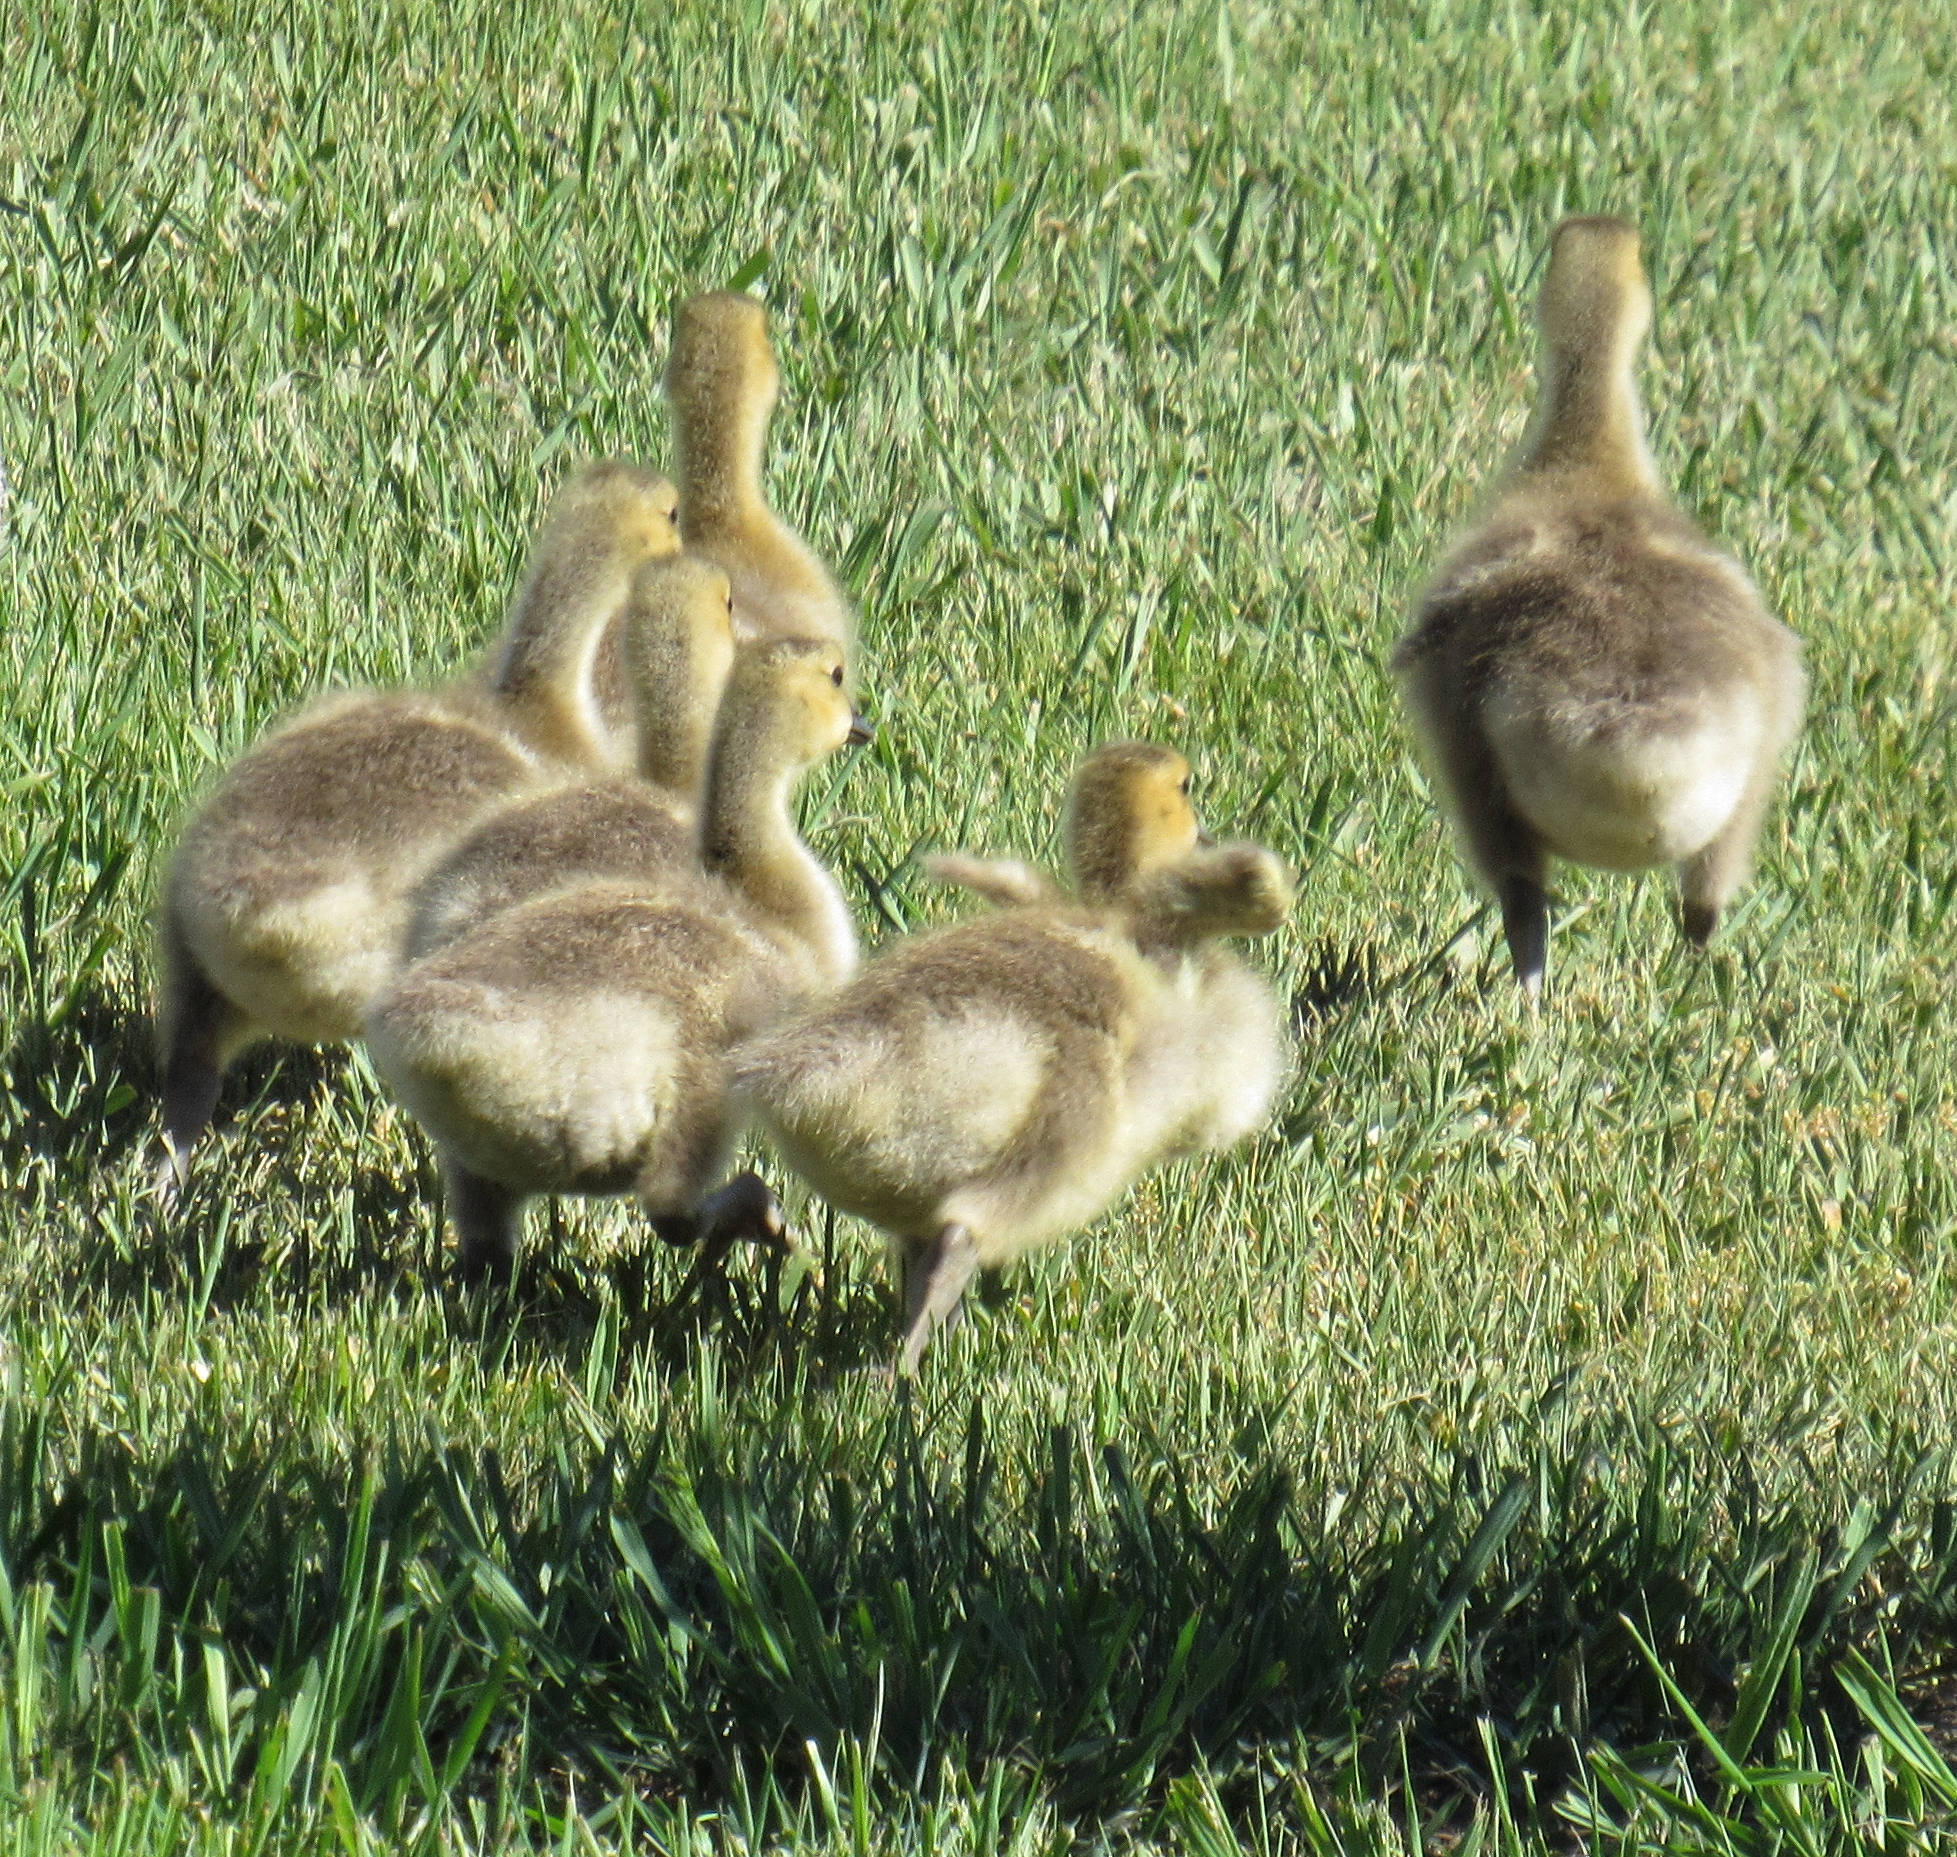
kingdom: Animalia
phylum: Chordata
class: Aves
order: Anseriformes
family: Anatidae
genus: Branta
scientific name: Branta canadensis
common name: Canada goose
